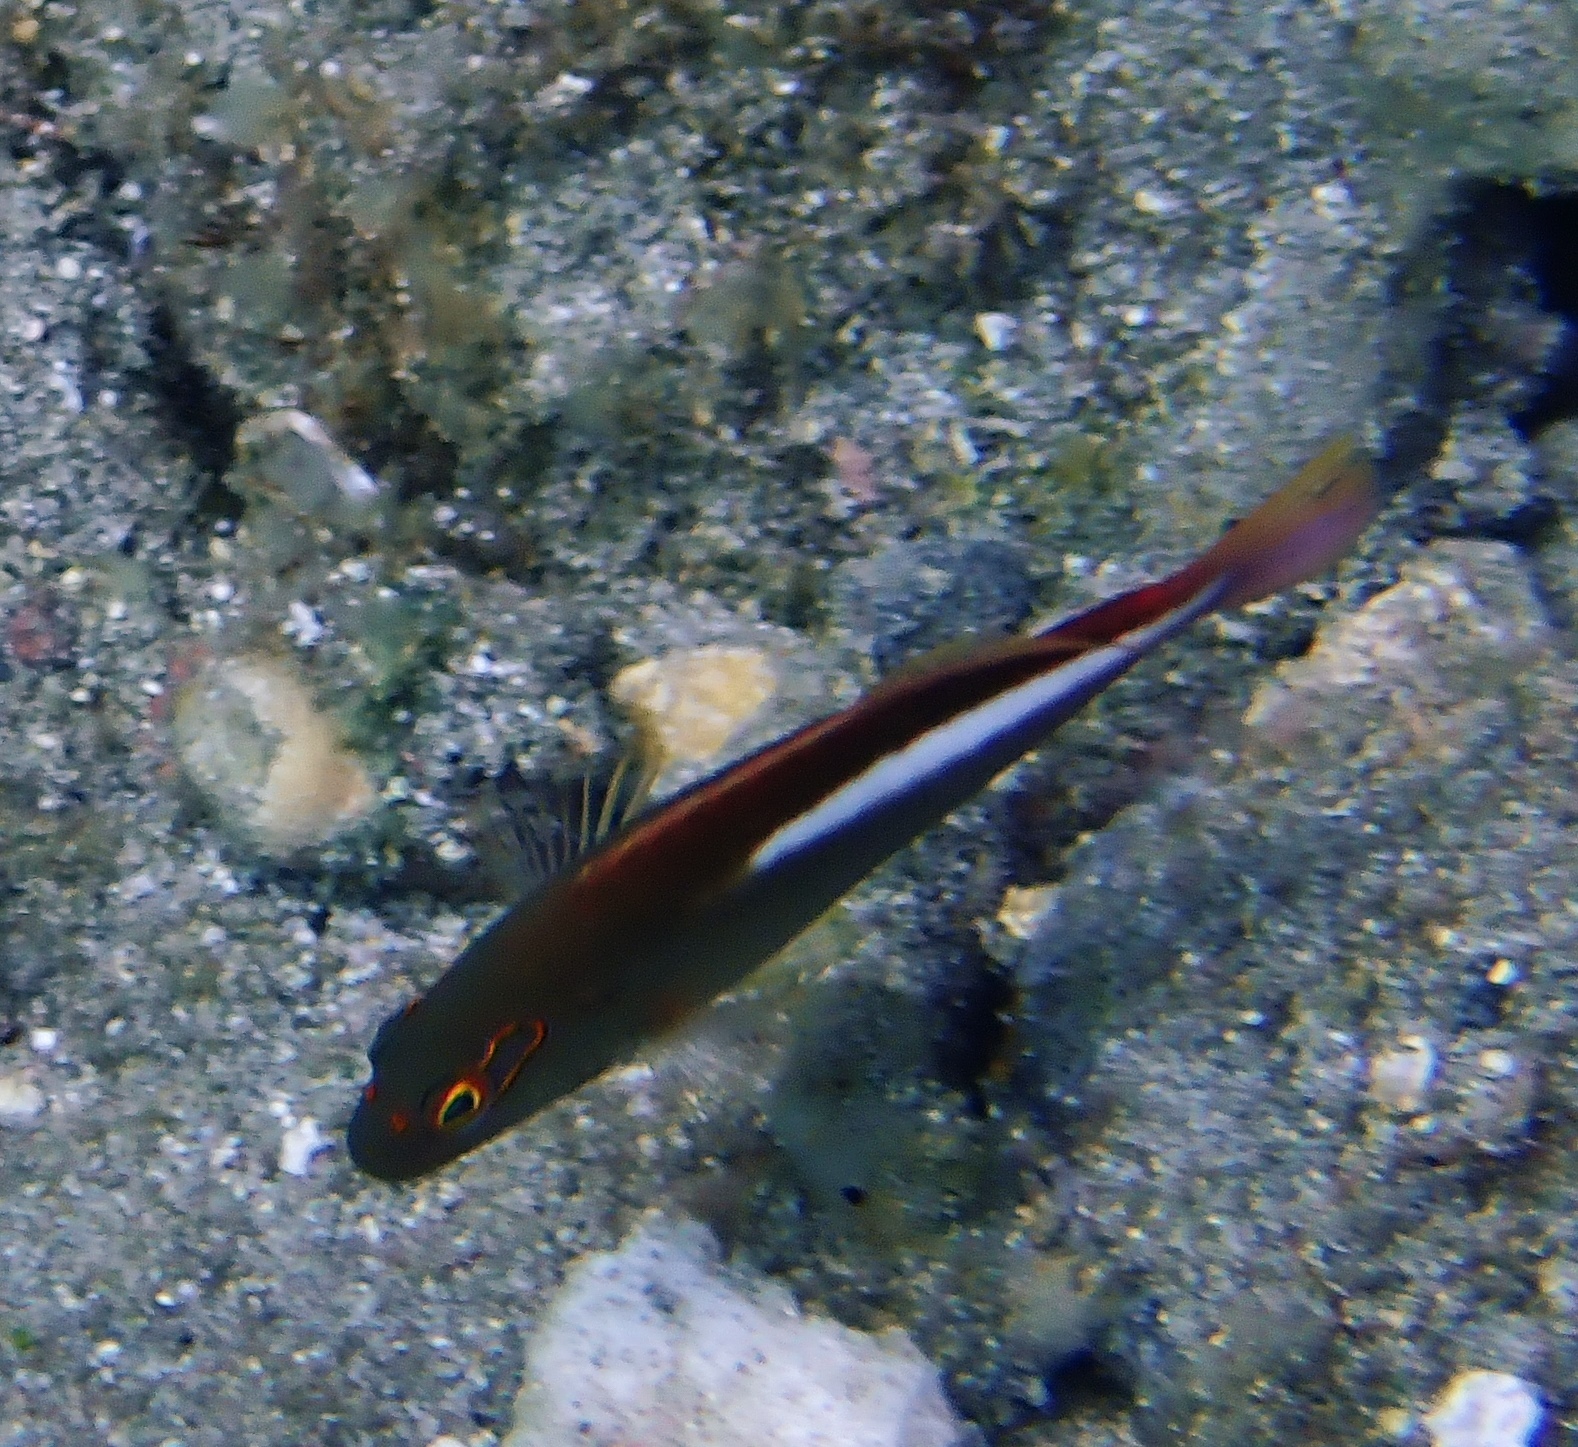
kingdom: Animalia
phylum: Chordata
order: Perciformes
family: Cirrhitidae
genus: Paracirrhites
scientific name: Paracirrhites arcatus
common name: Arc-eye hawkfish
